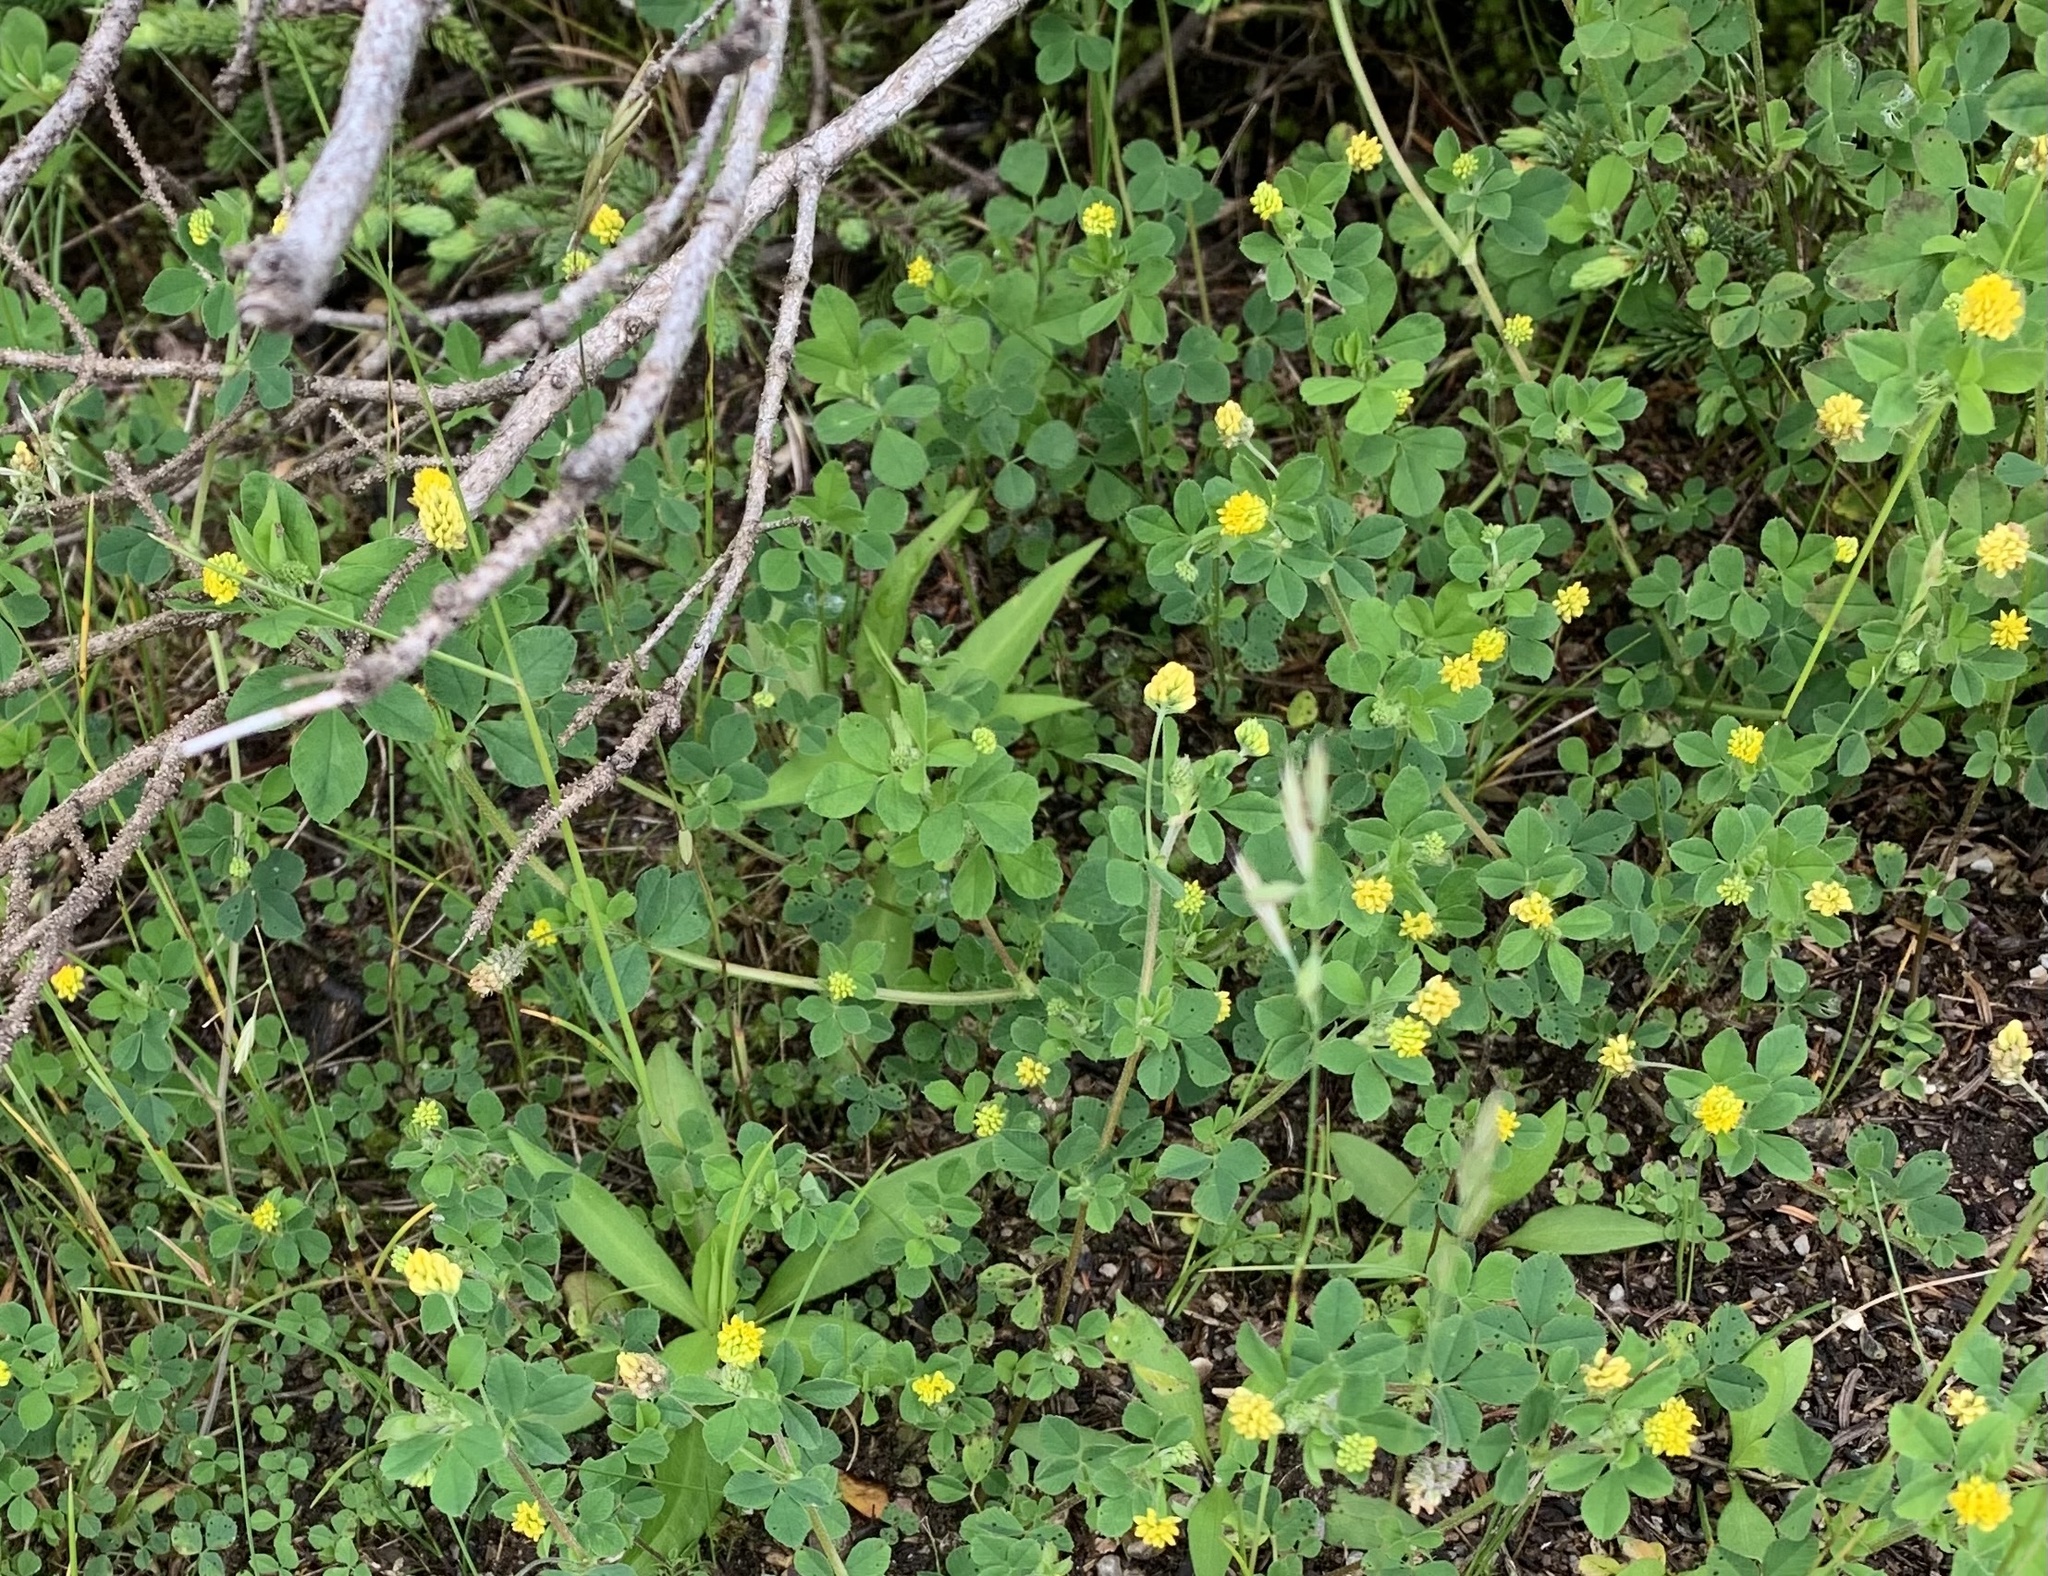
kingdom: Plantae
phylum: Tracheophyta
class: Magnoliopsida
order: Fabales
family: Fabaceae
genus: Medicago
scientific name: Medicago lupulina
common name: Black medick
